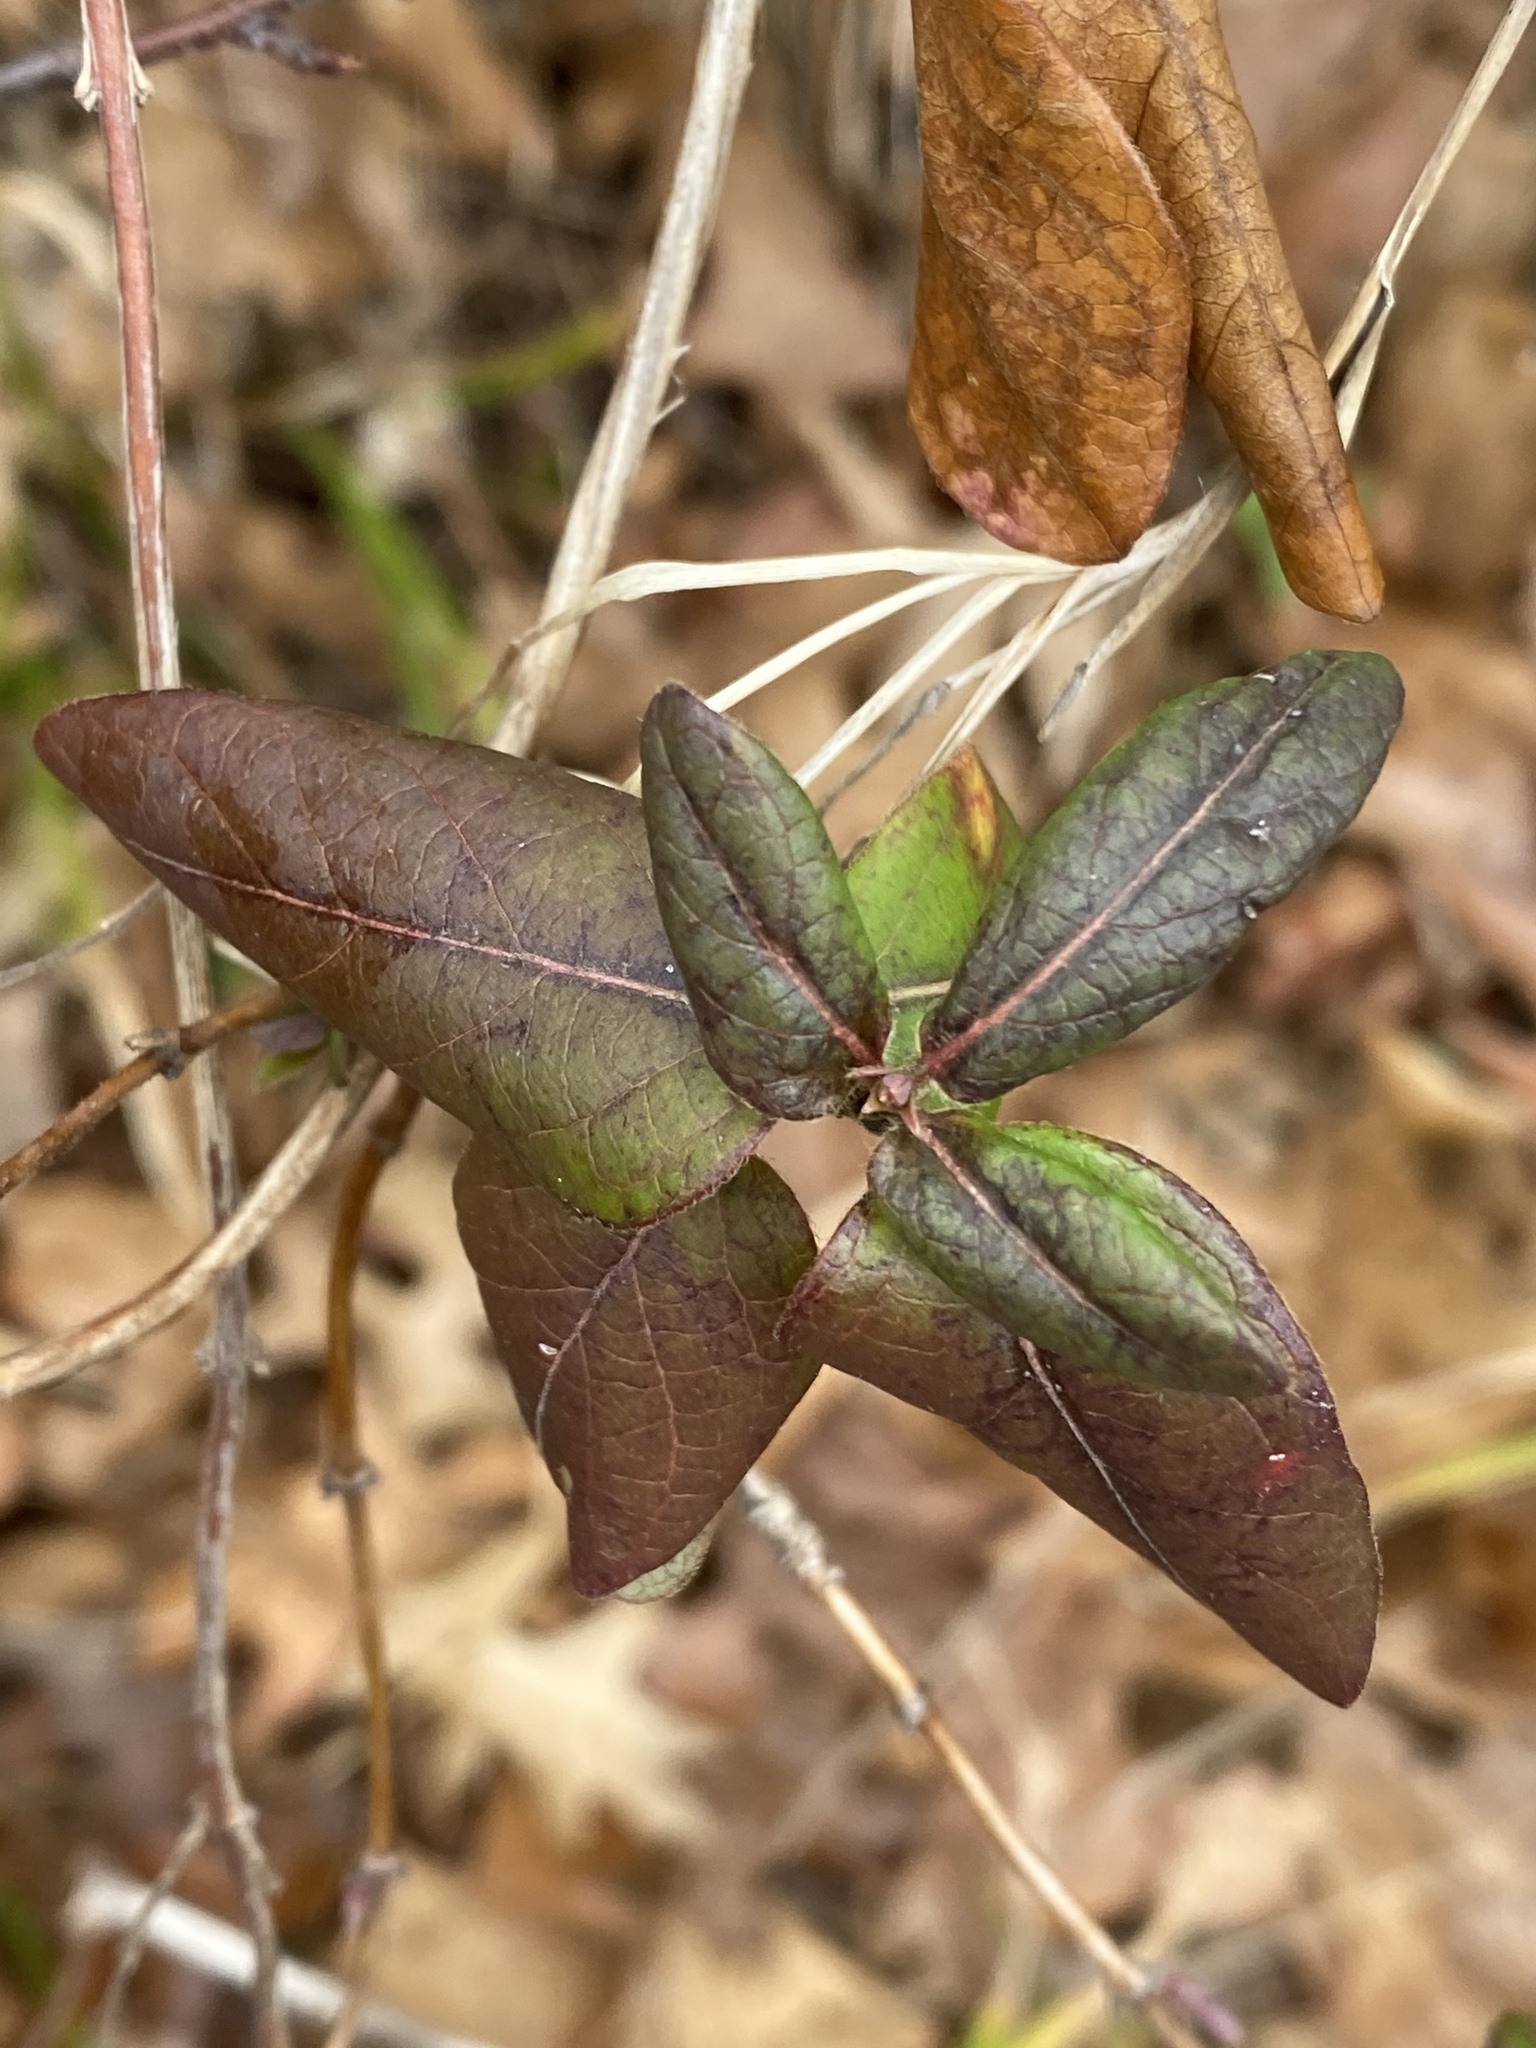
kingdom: Plantae
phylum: Tracheophyta
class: Magnoliopsida
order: Dipsacales
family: Caprifoliaceae
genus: Lonicera
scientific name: Lonicera japonica
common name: Japanese honeysuckle
